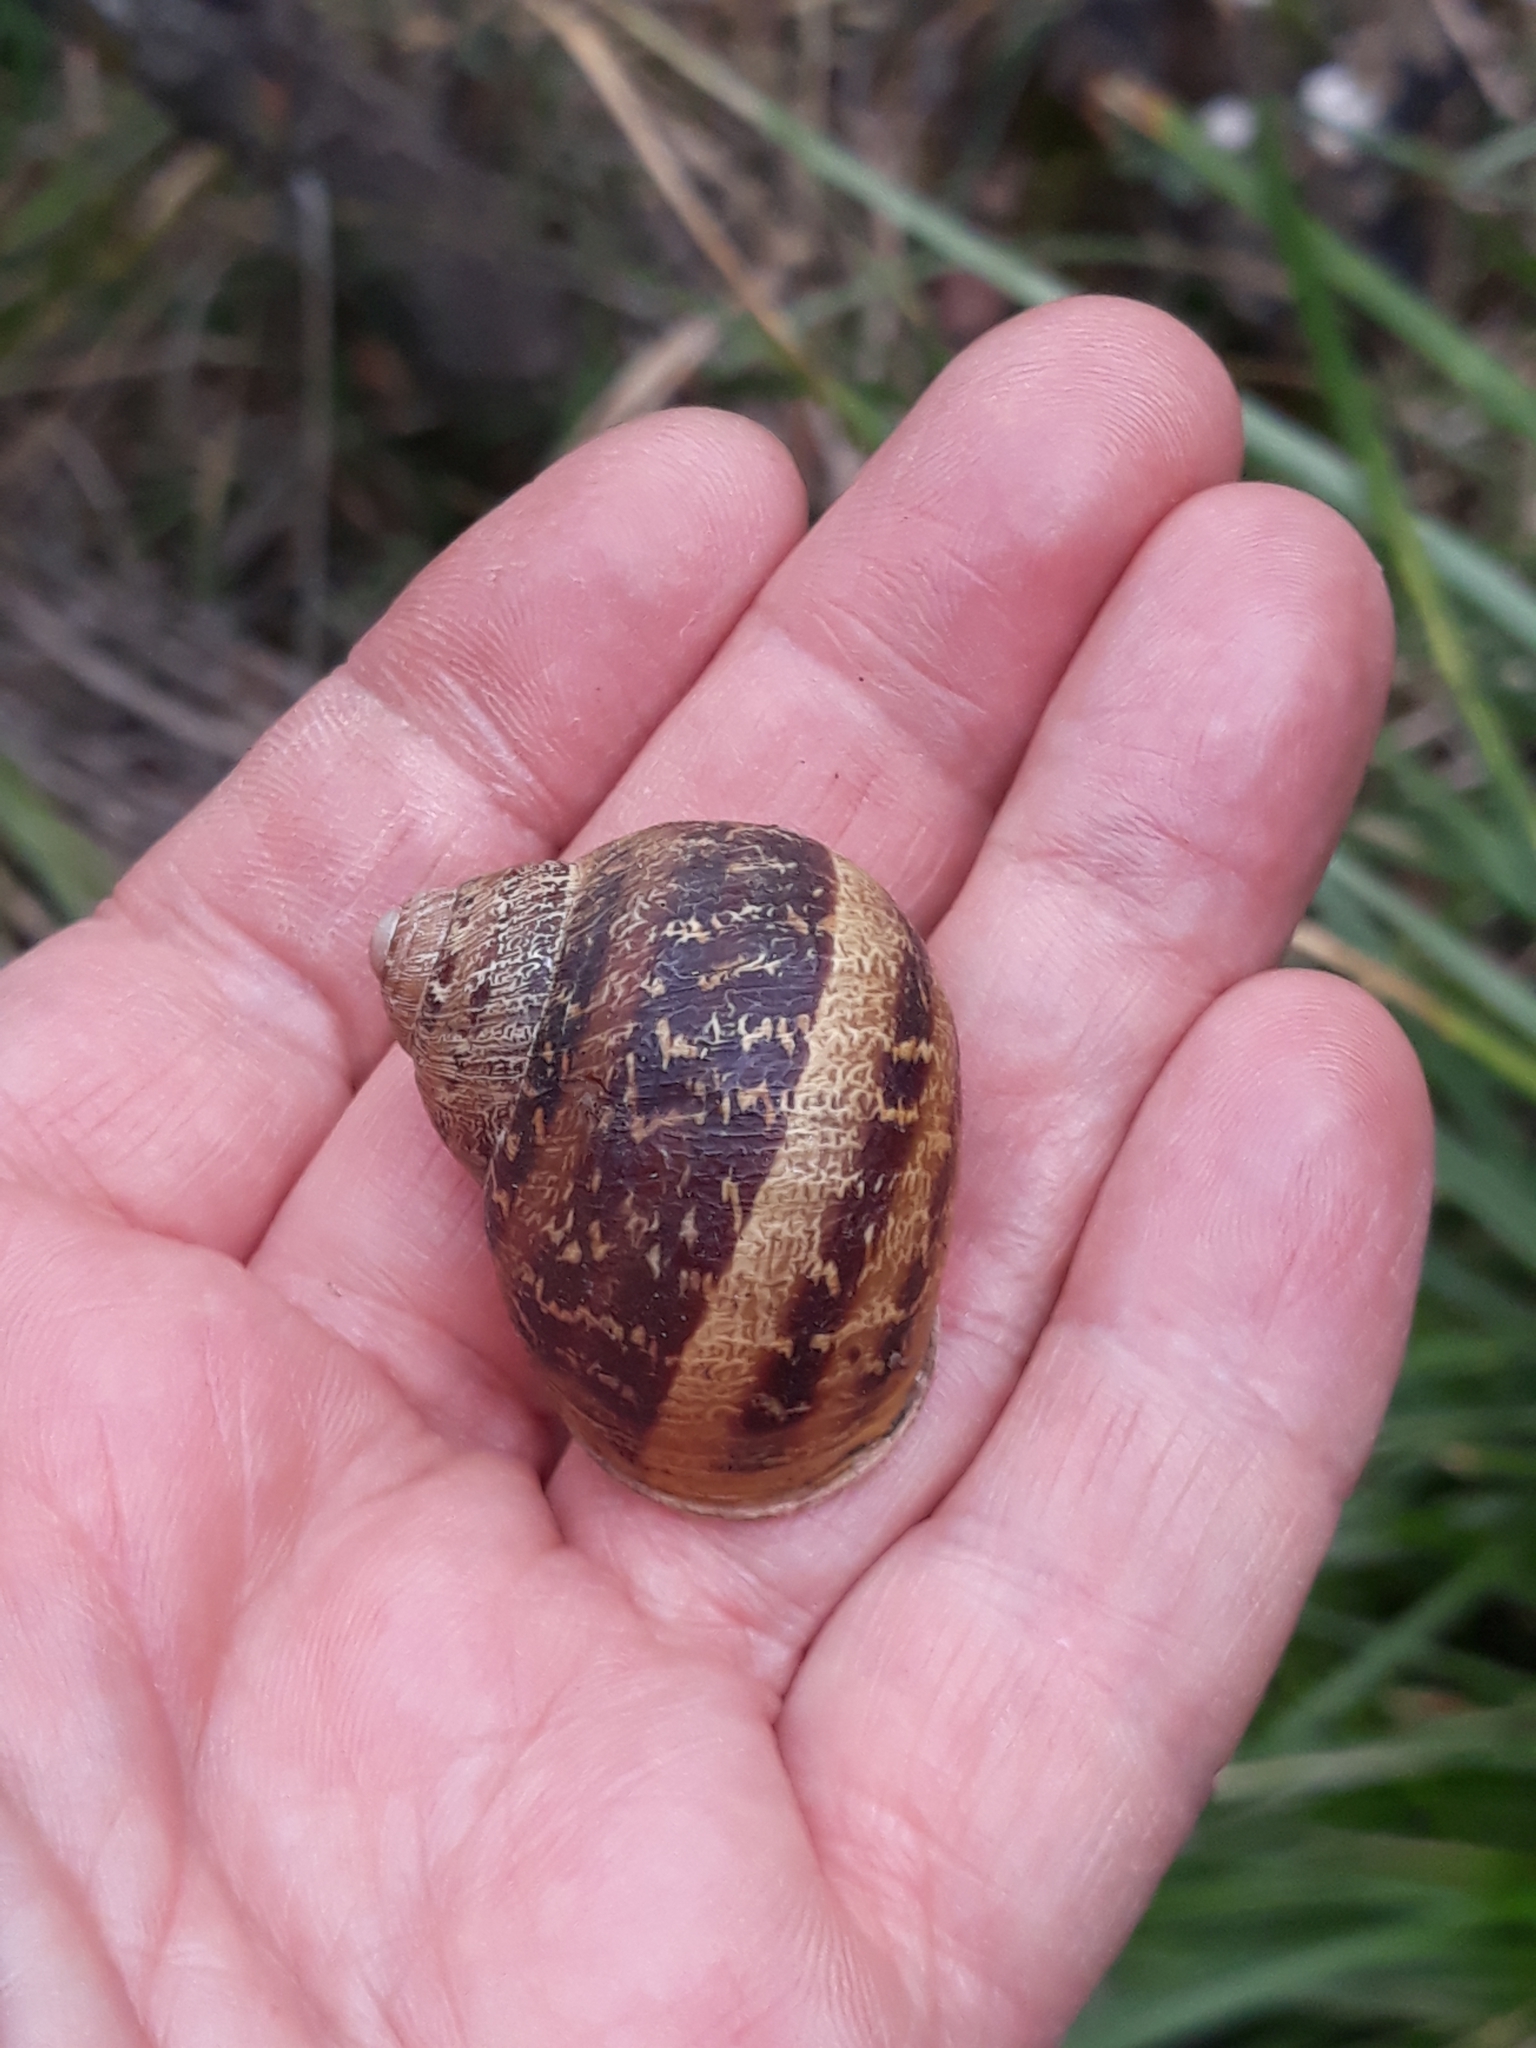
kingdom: Animalia
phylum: Mollusca
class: Gastropoda
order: Stylommatophora
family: Helicidae
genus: Cornu
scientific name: Cornu aspersum
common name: Brown garden snail
